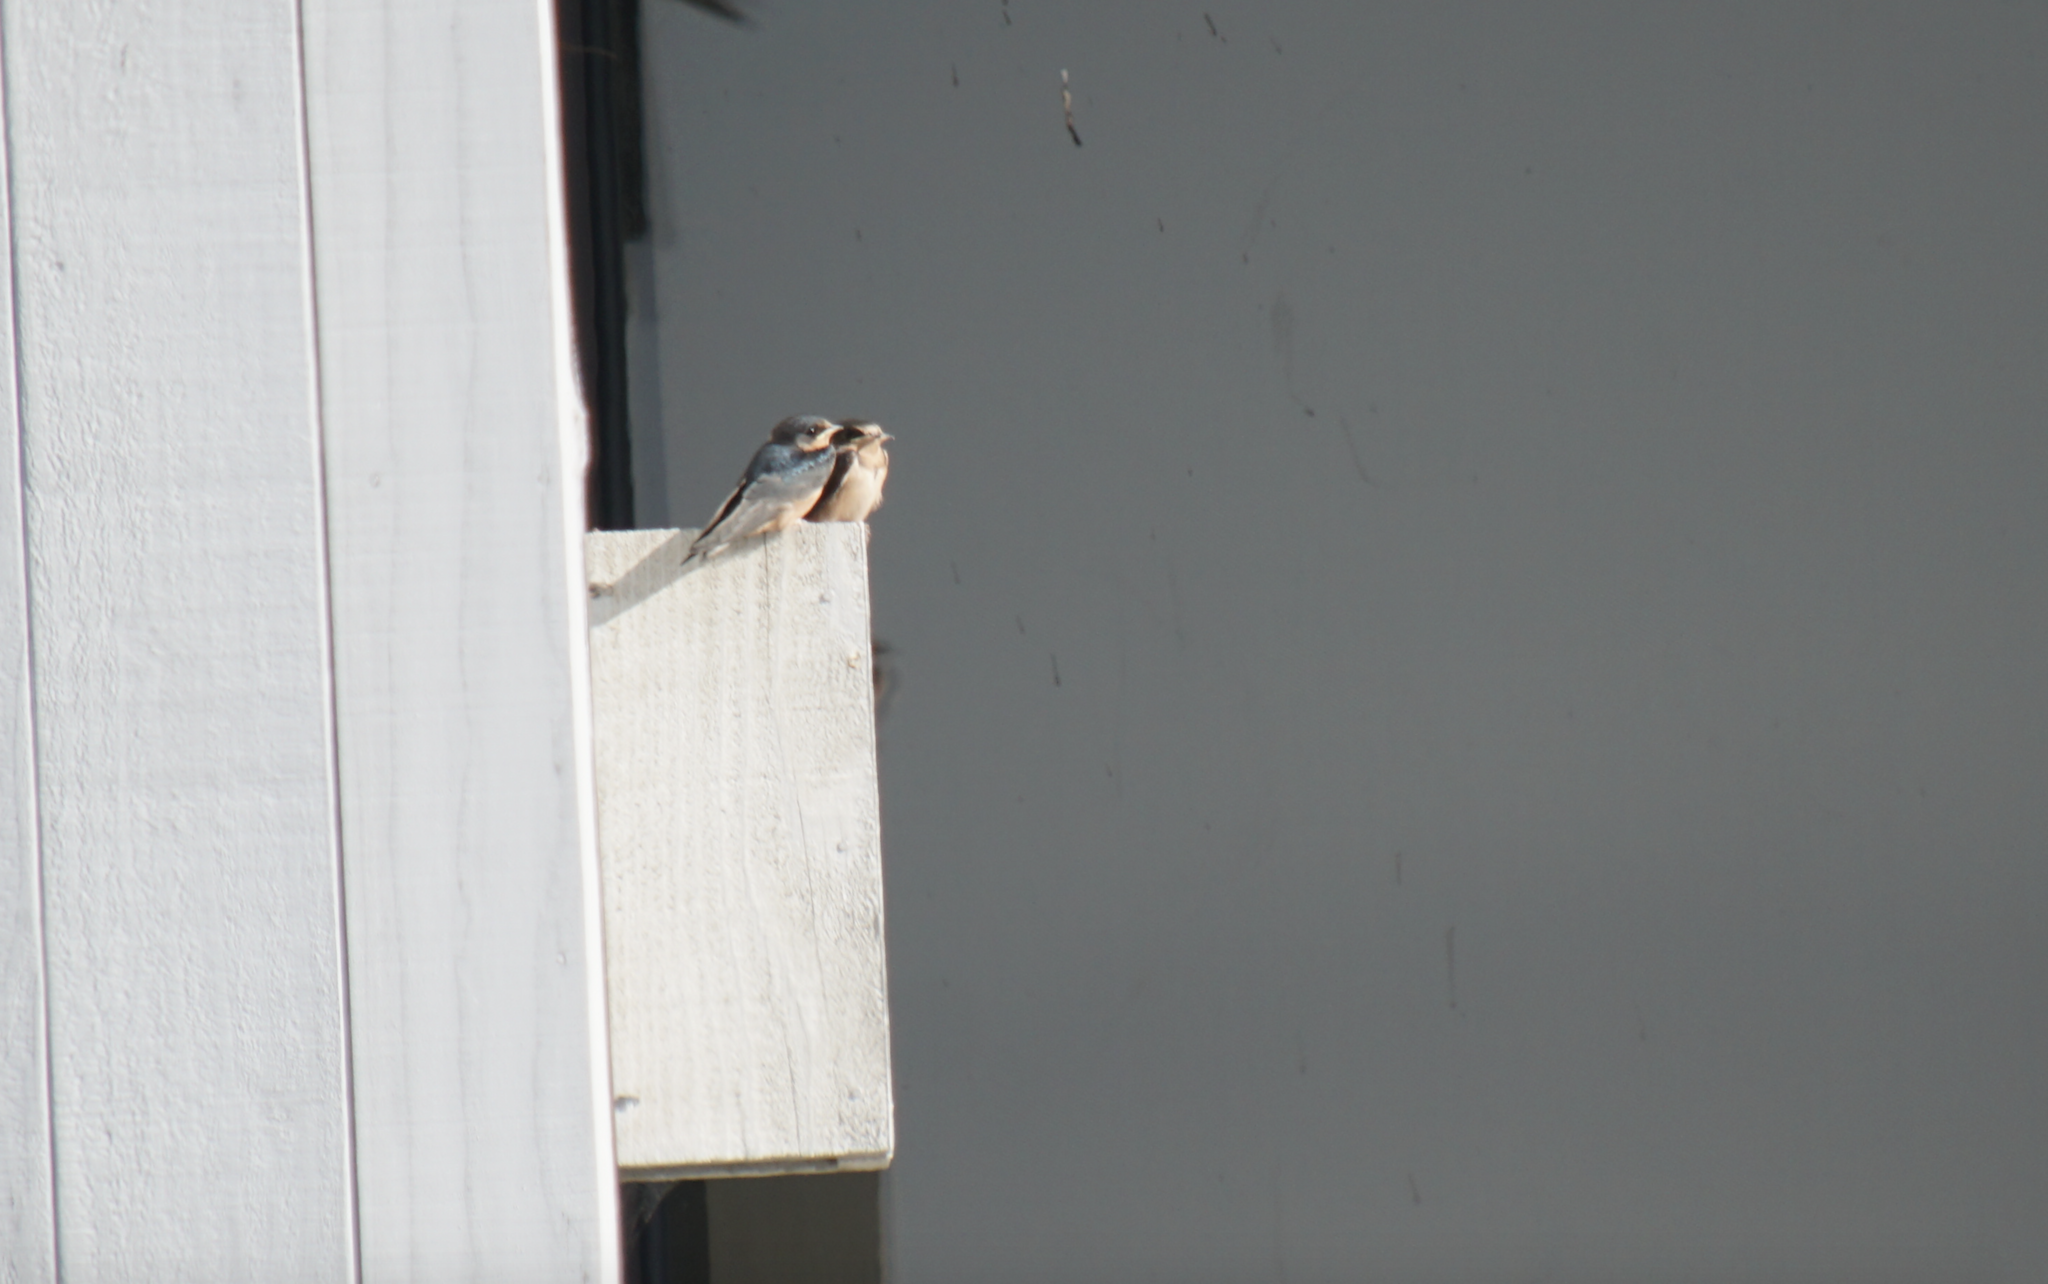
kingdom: Animalia
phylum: Chordata
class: Aves
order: Passeriformes
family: Hirundinidae
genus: Hirundo
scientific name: Hirundo rustica
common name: Barn swallow
